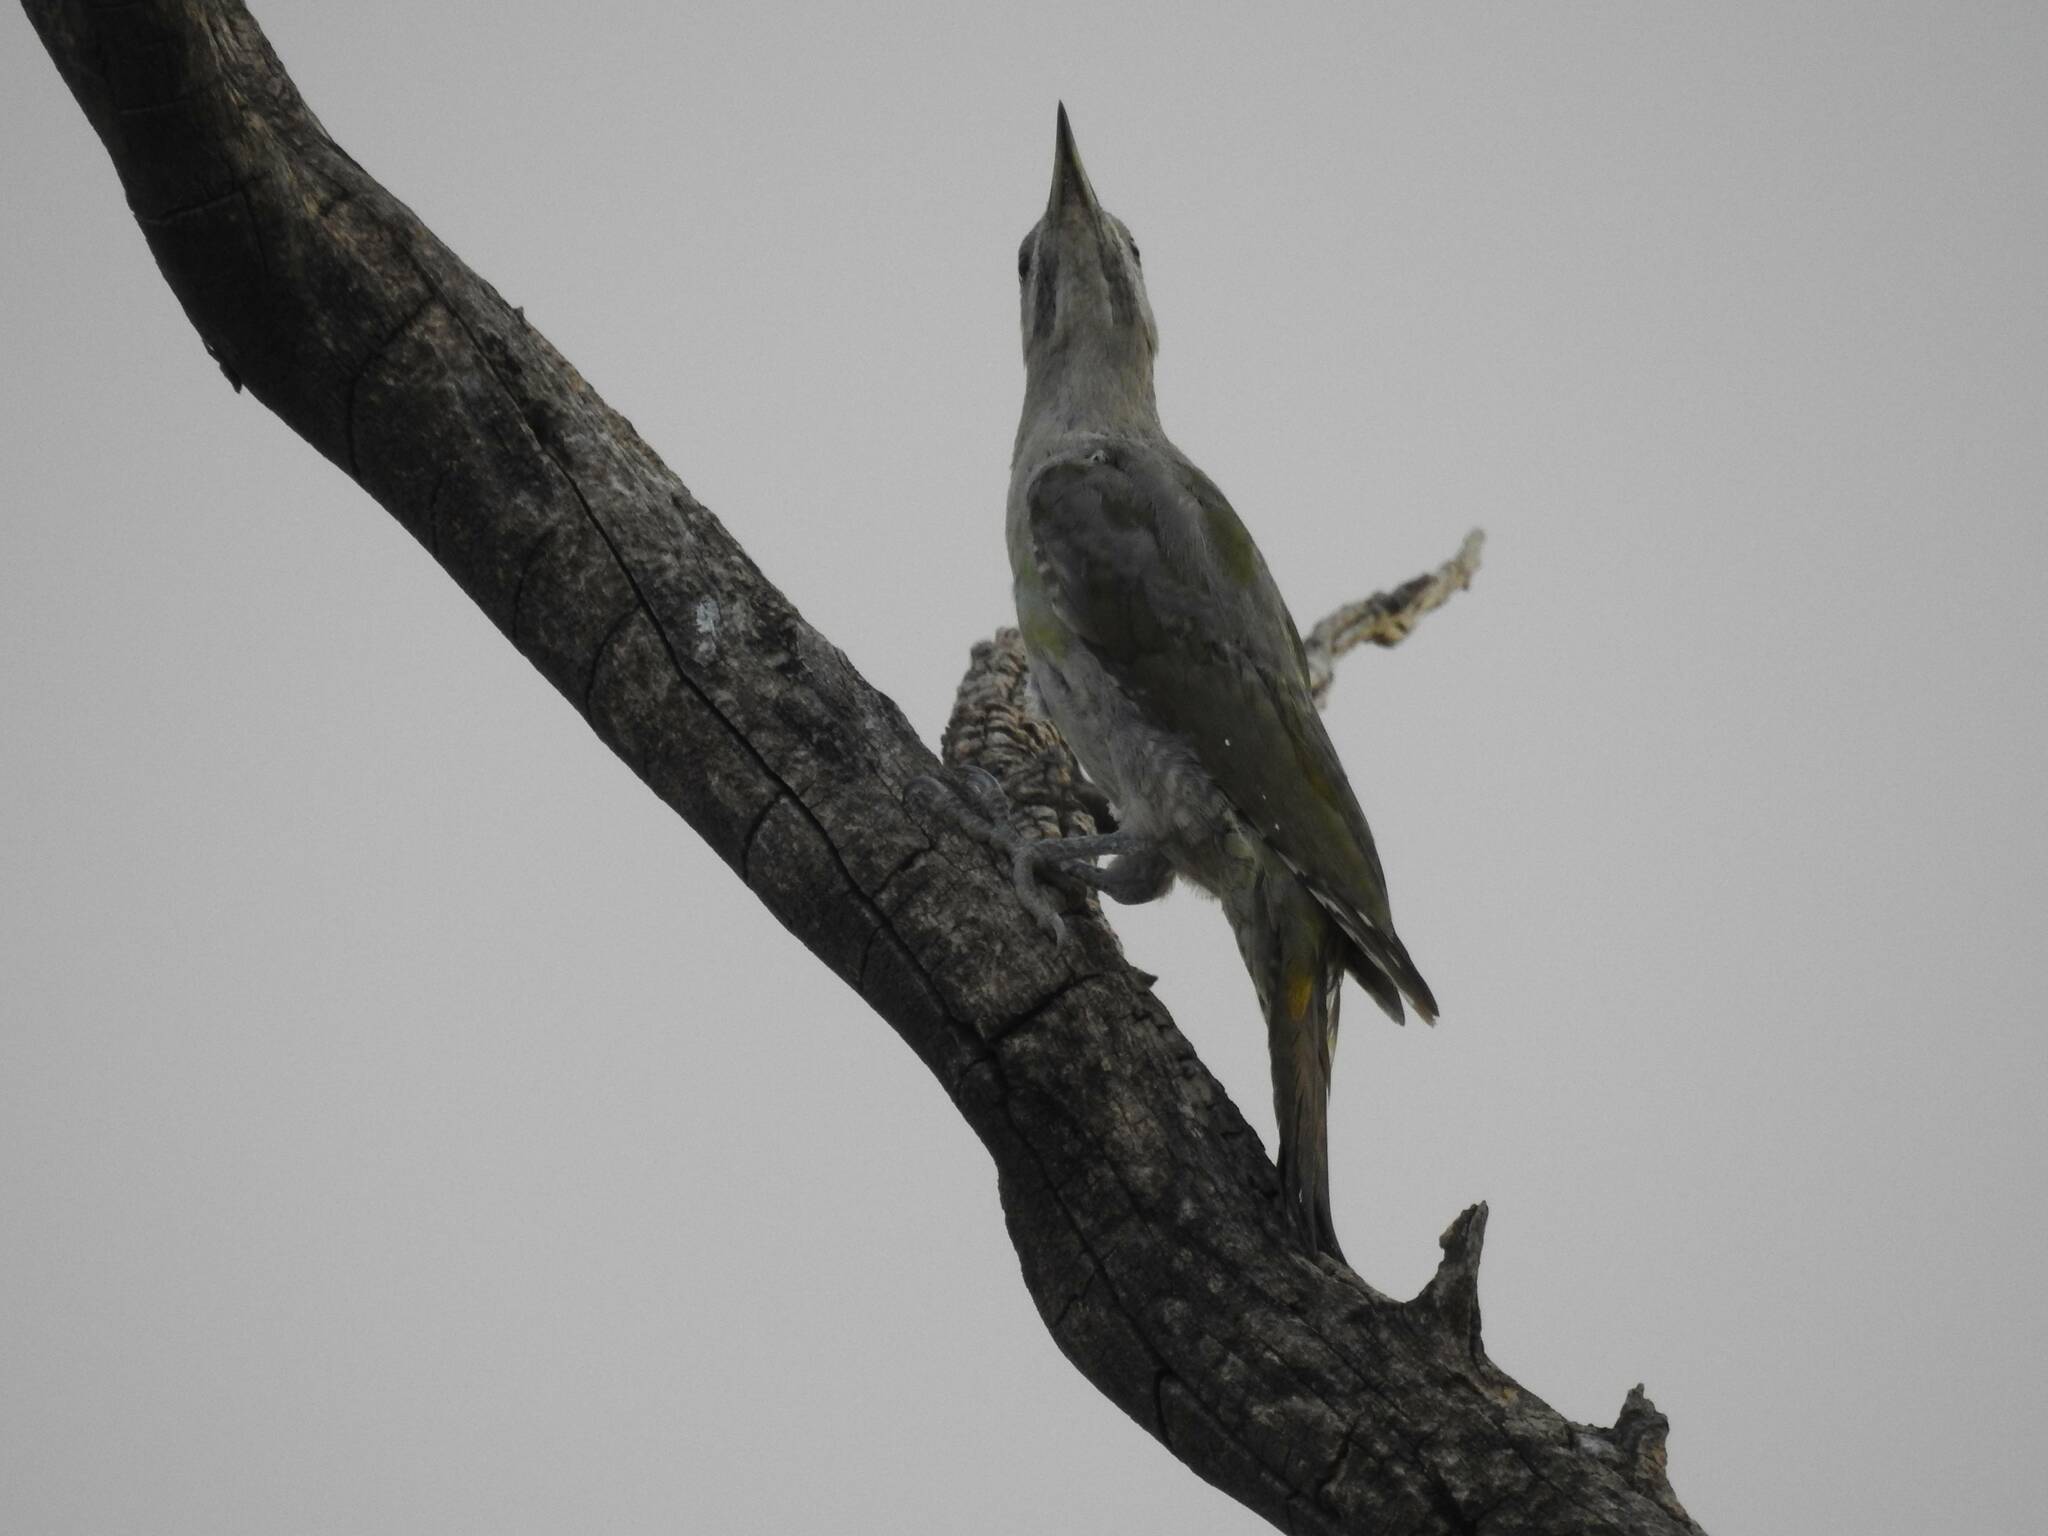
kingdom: Animalia
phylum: Chordata
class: Aves
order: Piciformes
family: Picidae
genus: Picus
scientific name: Picus vaillantii
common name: Levaillant's woodpecker
